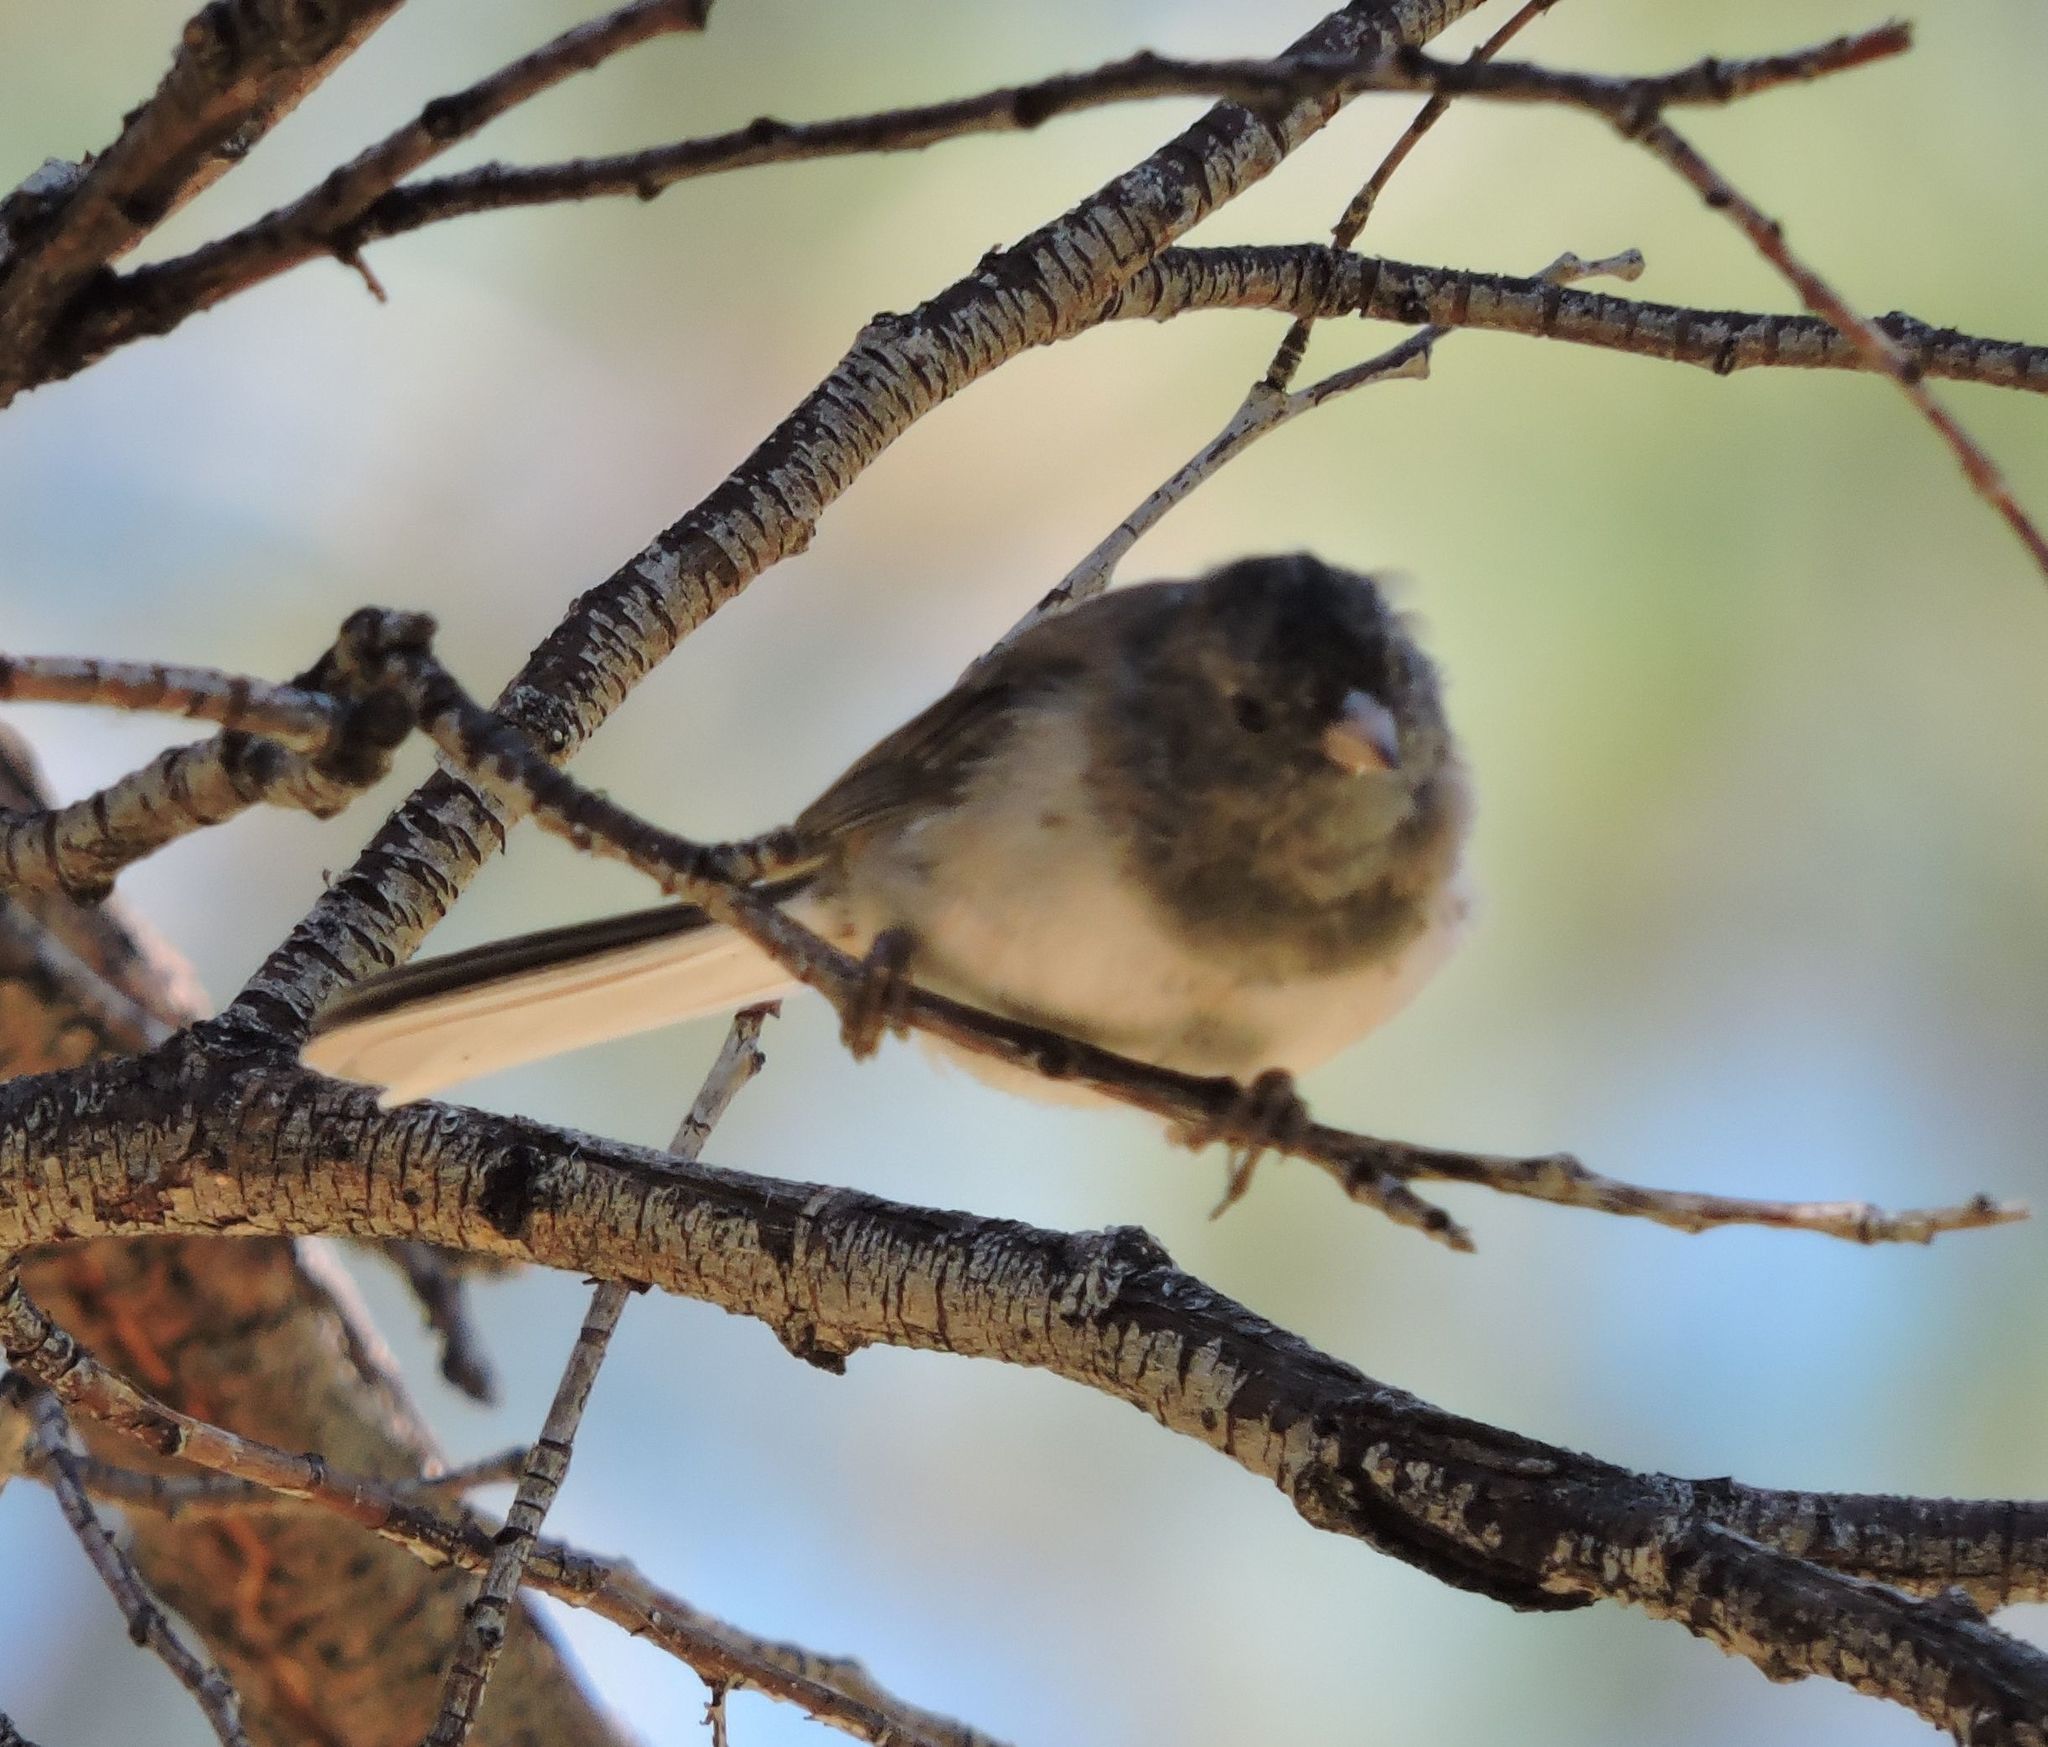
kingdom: Animalia
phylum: Chordata
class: Aves
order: Passeriformes
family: Passerellidae
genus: Junco
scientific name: Junco hyemalis
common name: Dark-eyed junco
